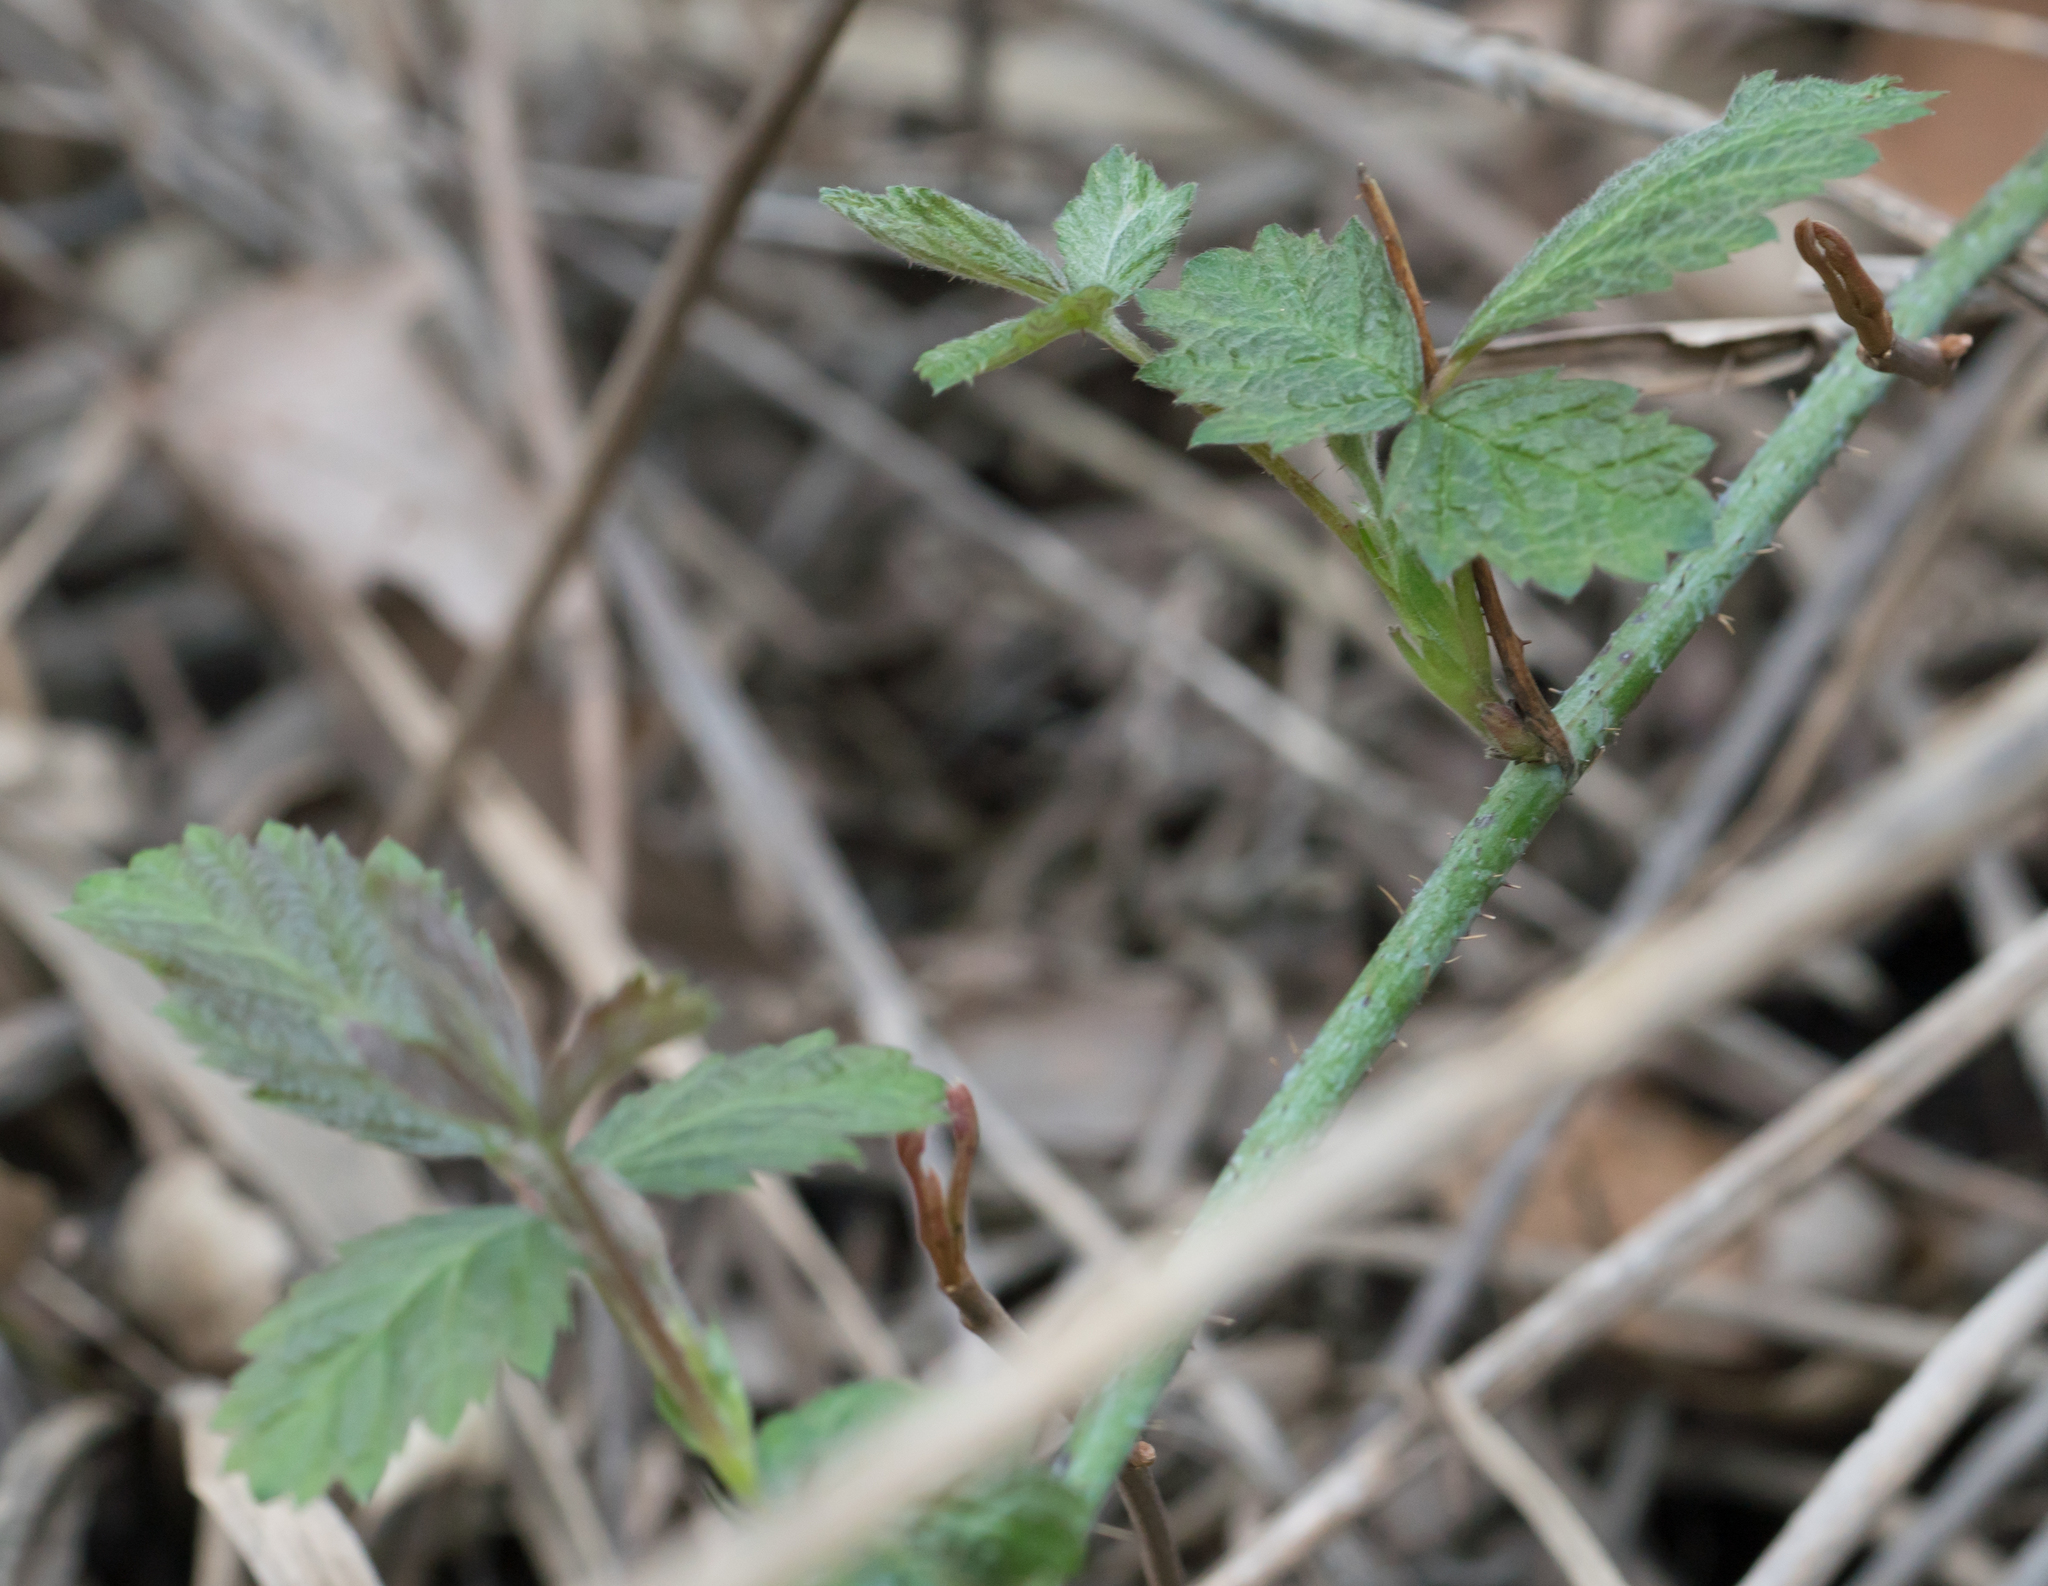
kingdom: Plantae
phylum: Tracheophyta
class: Magnoliopsida
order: Rosales
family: Rosaceae
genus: Rubus
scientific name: Rubus ursinus
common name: Pacific blackberry
